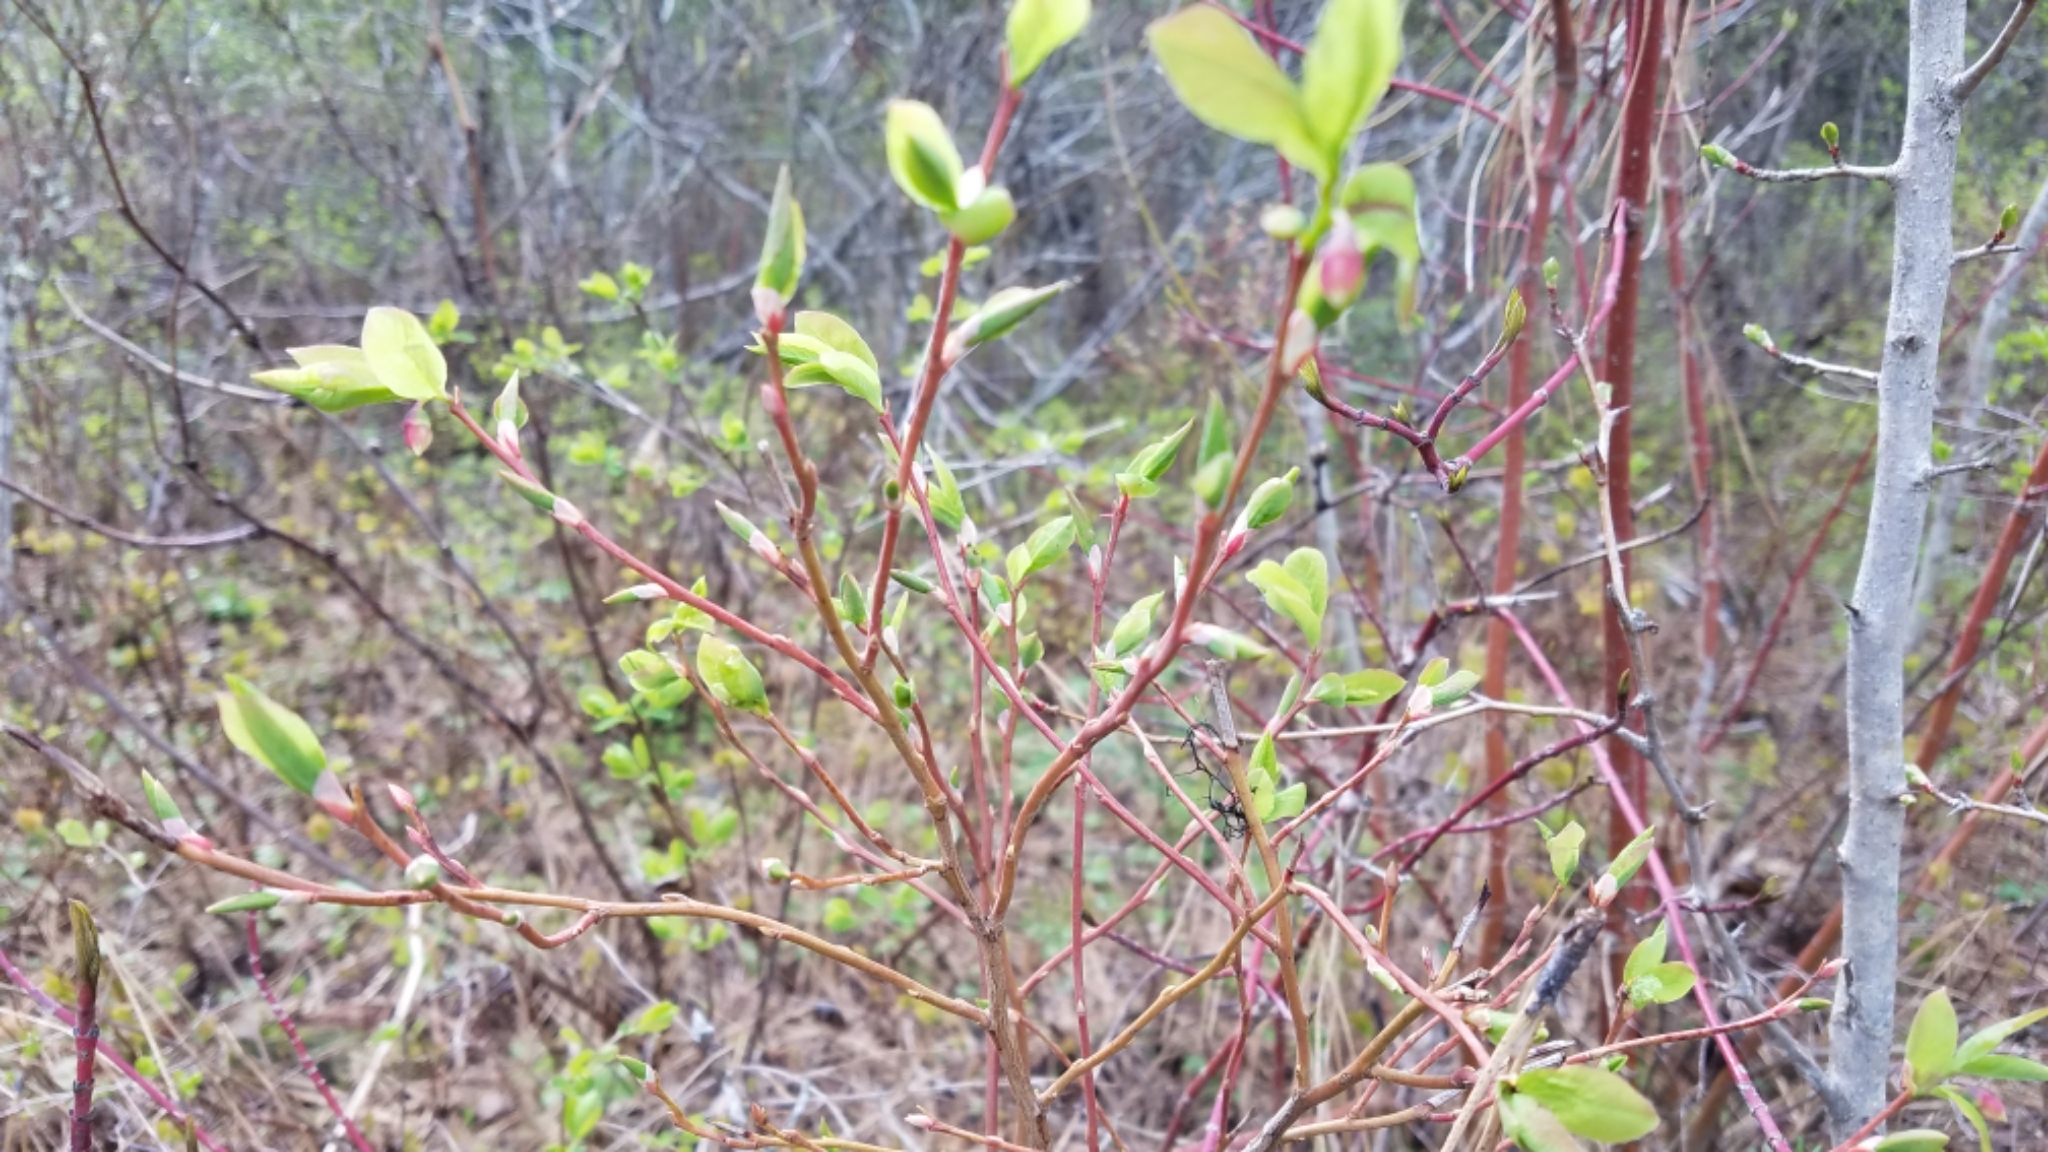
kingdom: Plantae
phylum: Tracheophyta
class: Magnoliopsida
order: Ericales
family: Ericaceae
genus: Vaccinium
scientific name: Vaccinium membranaceum
